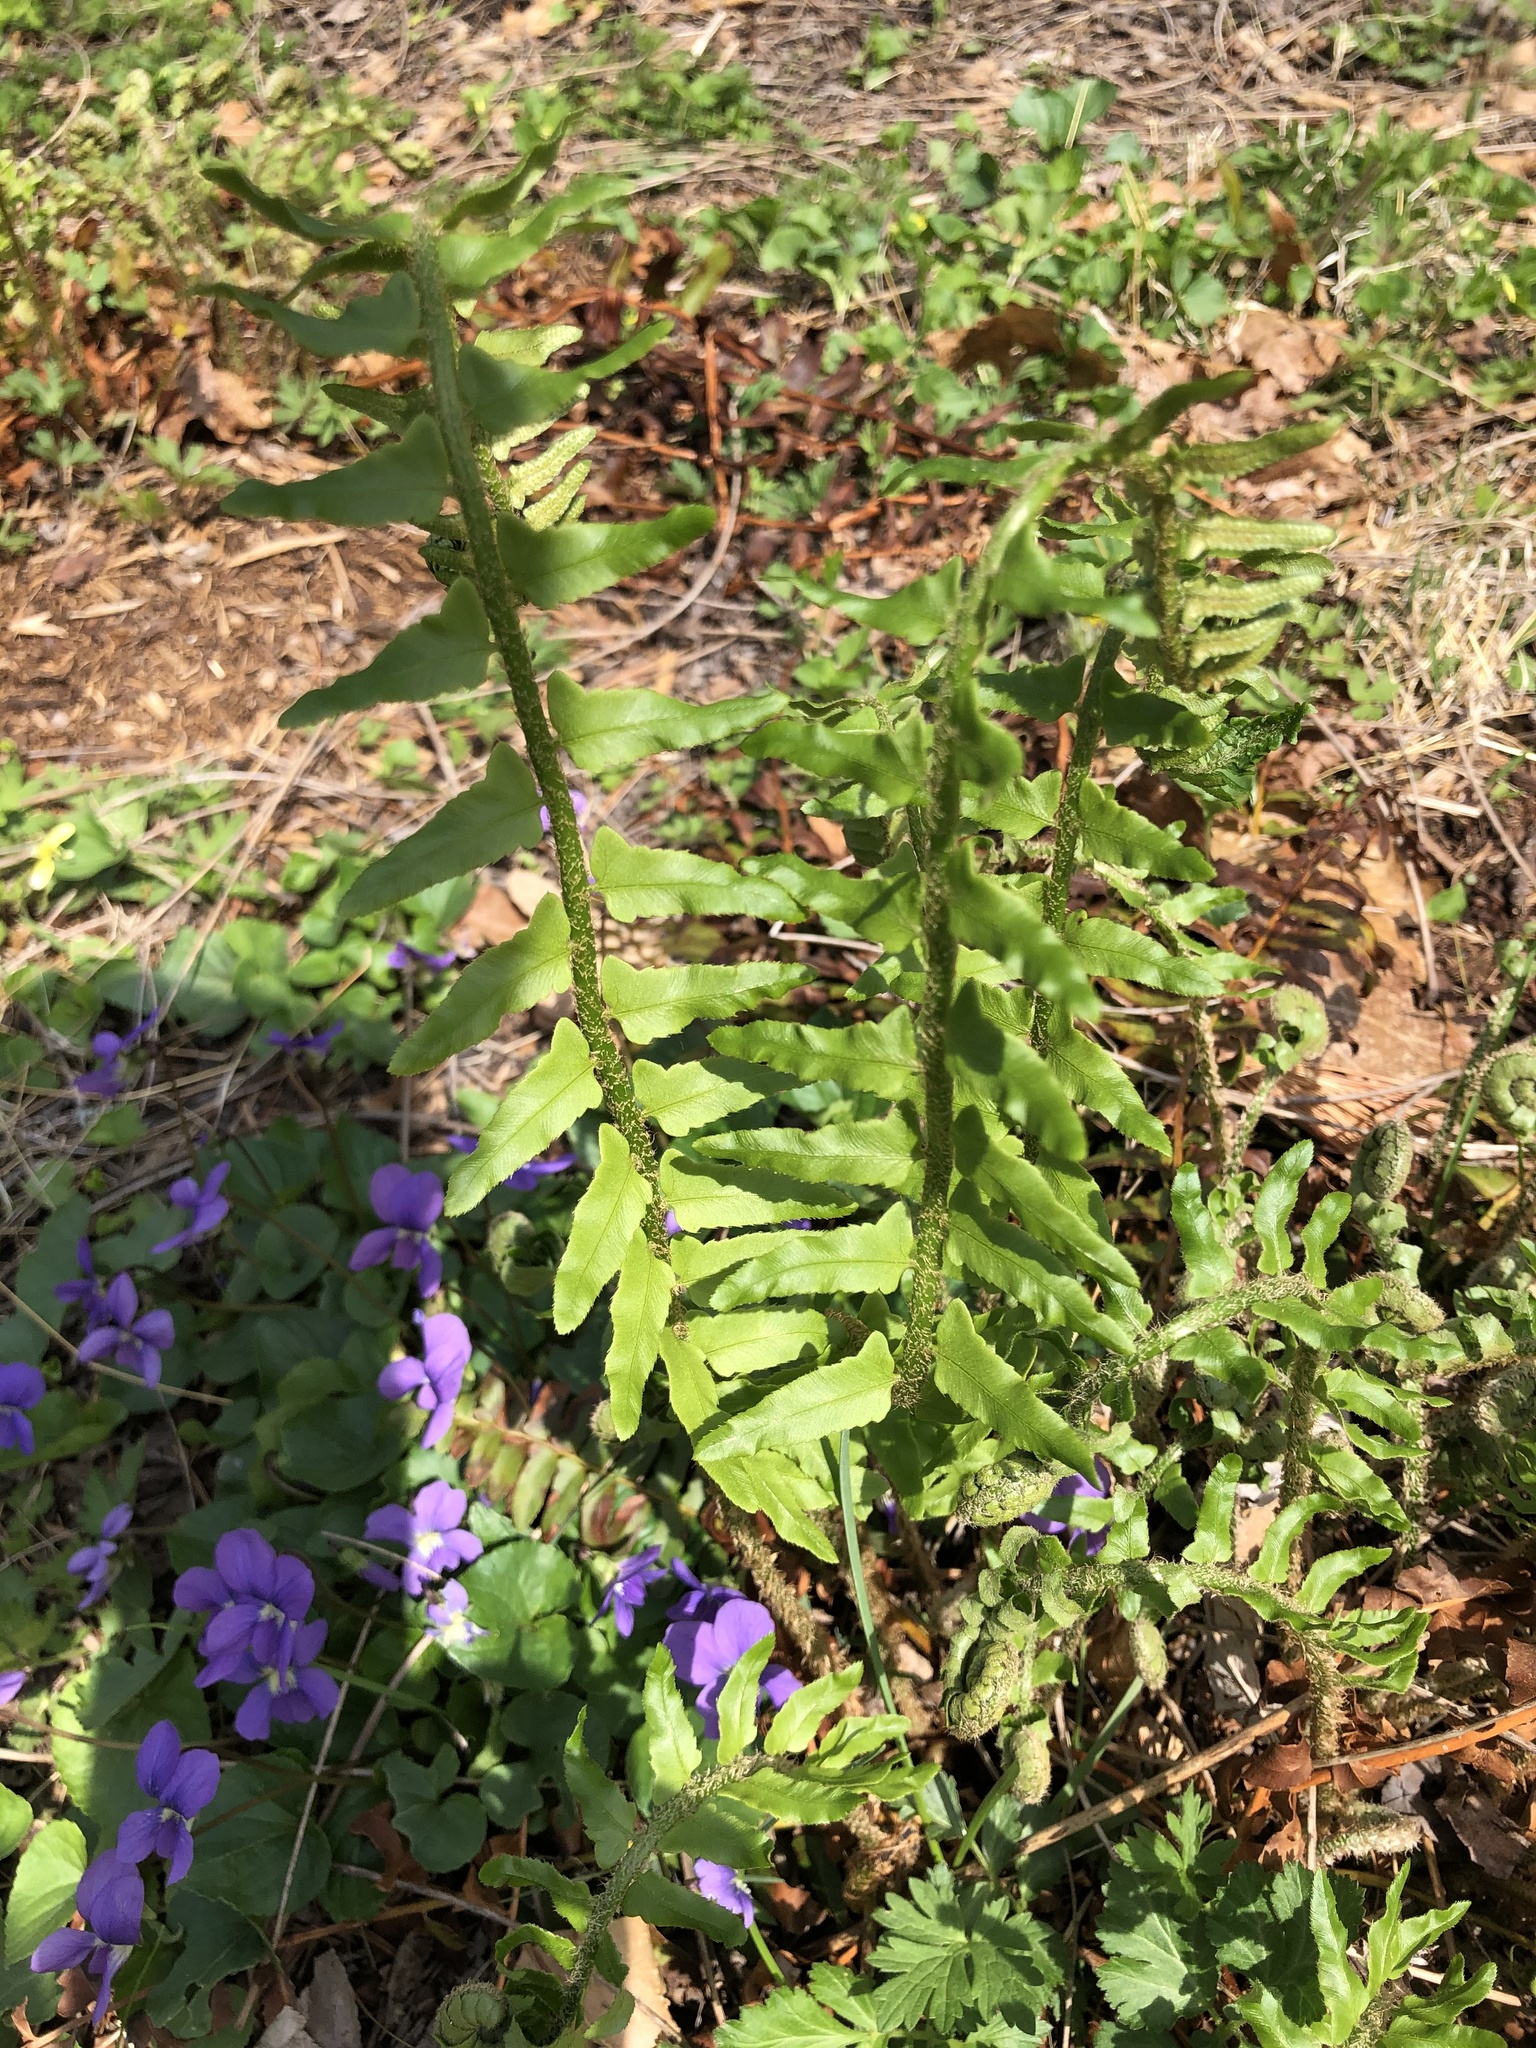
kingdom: Plantae
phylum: Tracheophyta
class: Polypodiopsida
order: Polypodiales
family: Dryopteridaceae
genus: Polystichum
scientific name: Polystichum acrostichoides
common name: Christmas fern
